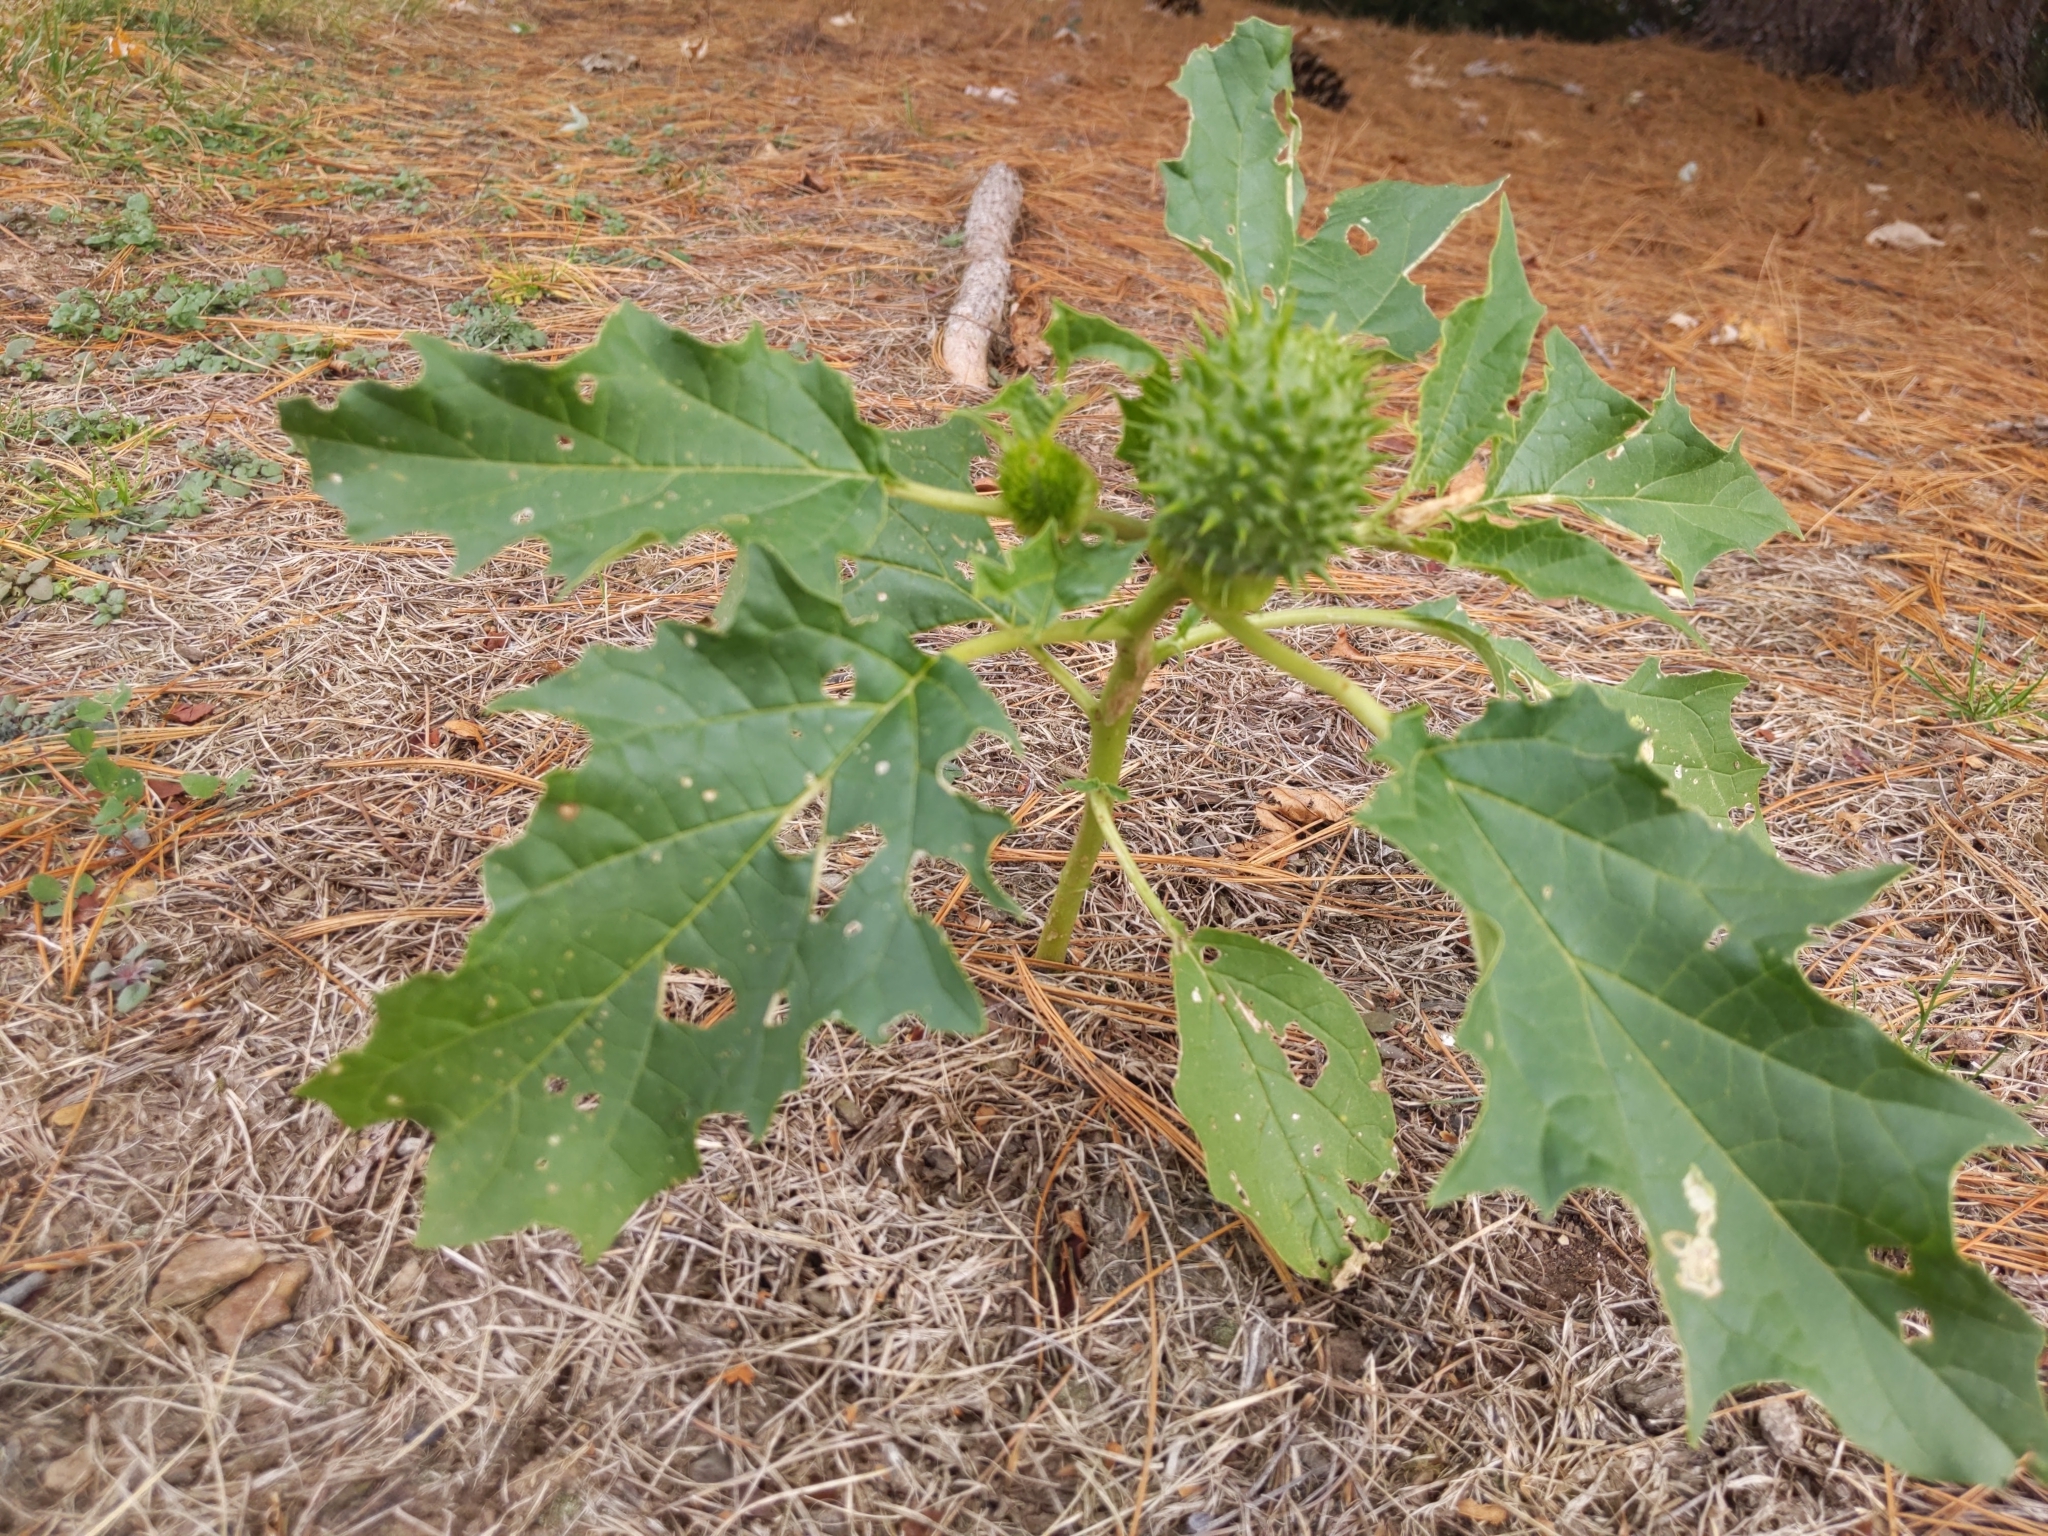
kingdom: Plantae
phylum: Tracheophyta
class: Magnoliopsida
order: Solanales
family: Solanaceae
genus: Datura
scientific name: Datura stramonium
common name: Thorn-apple
